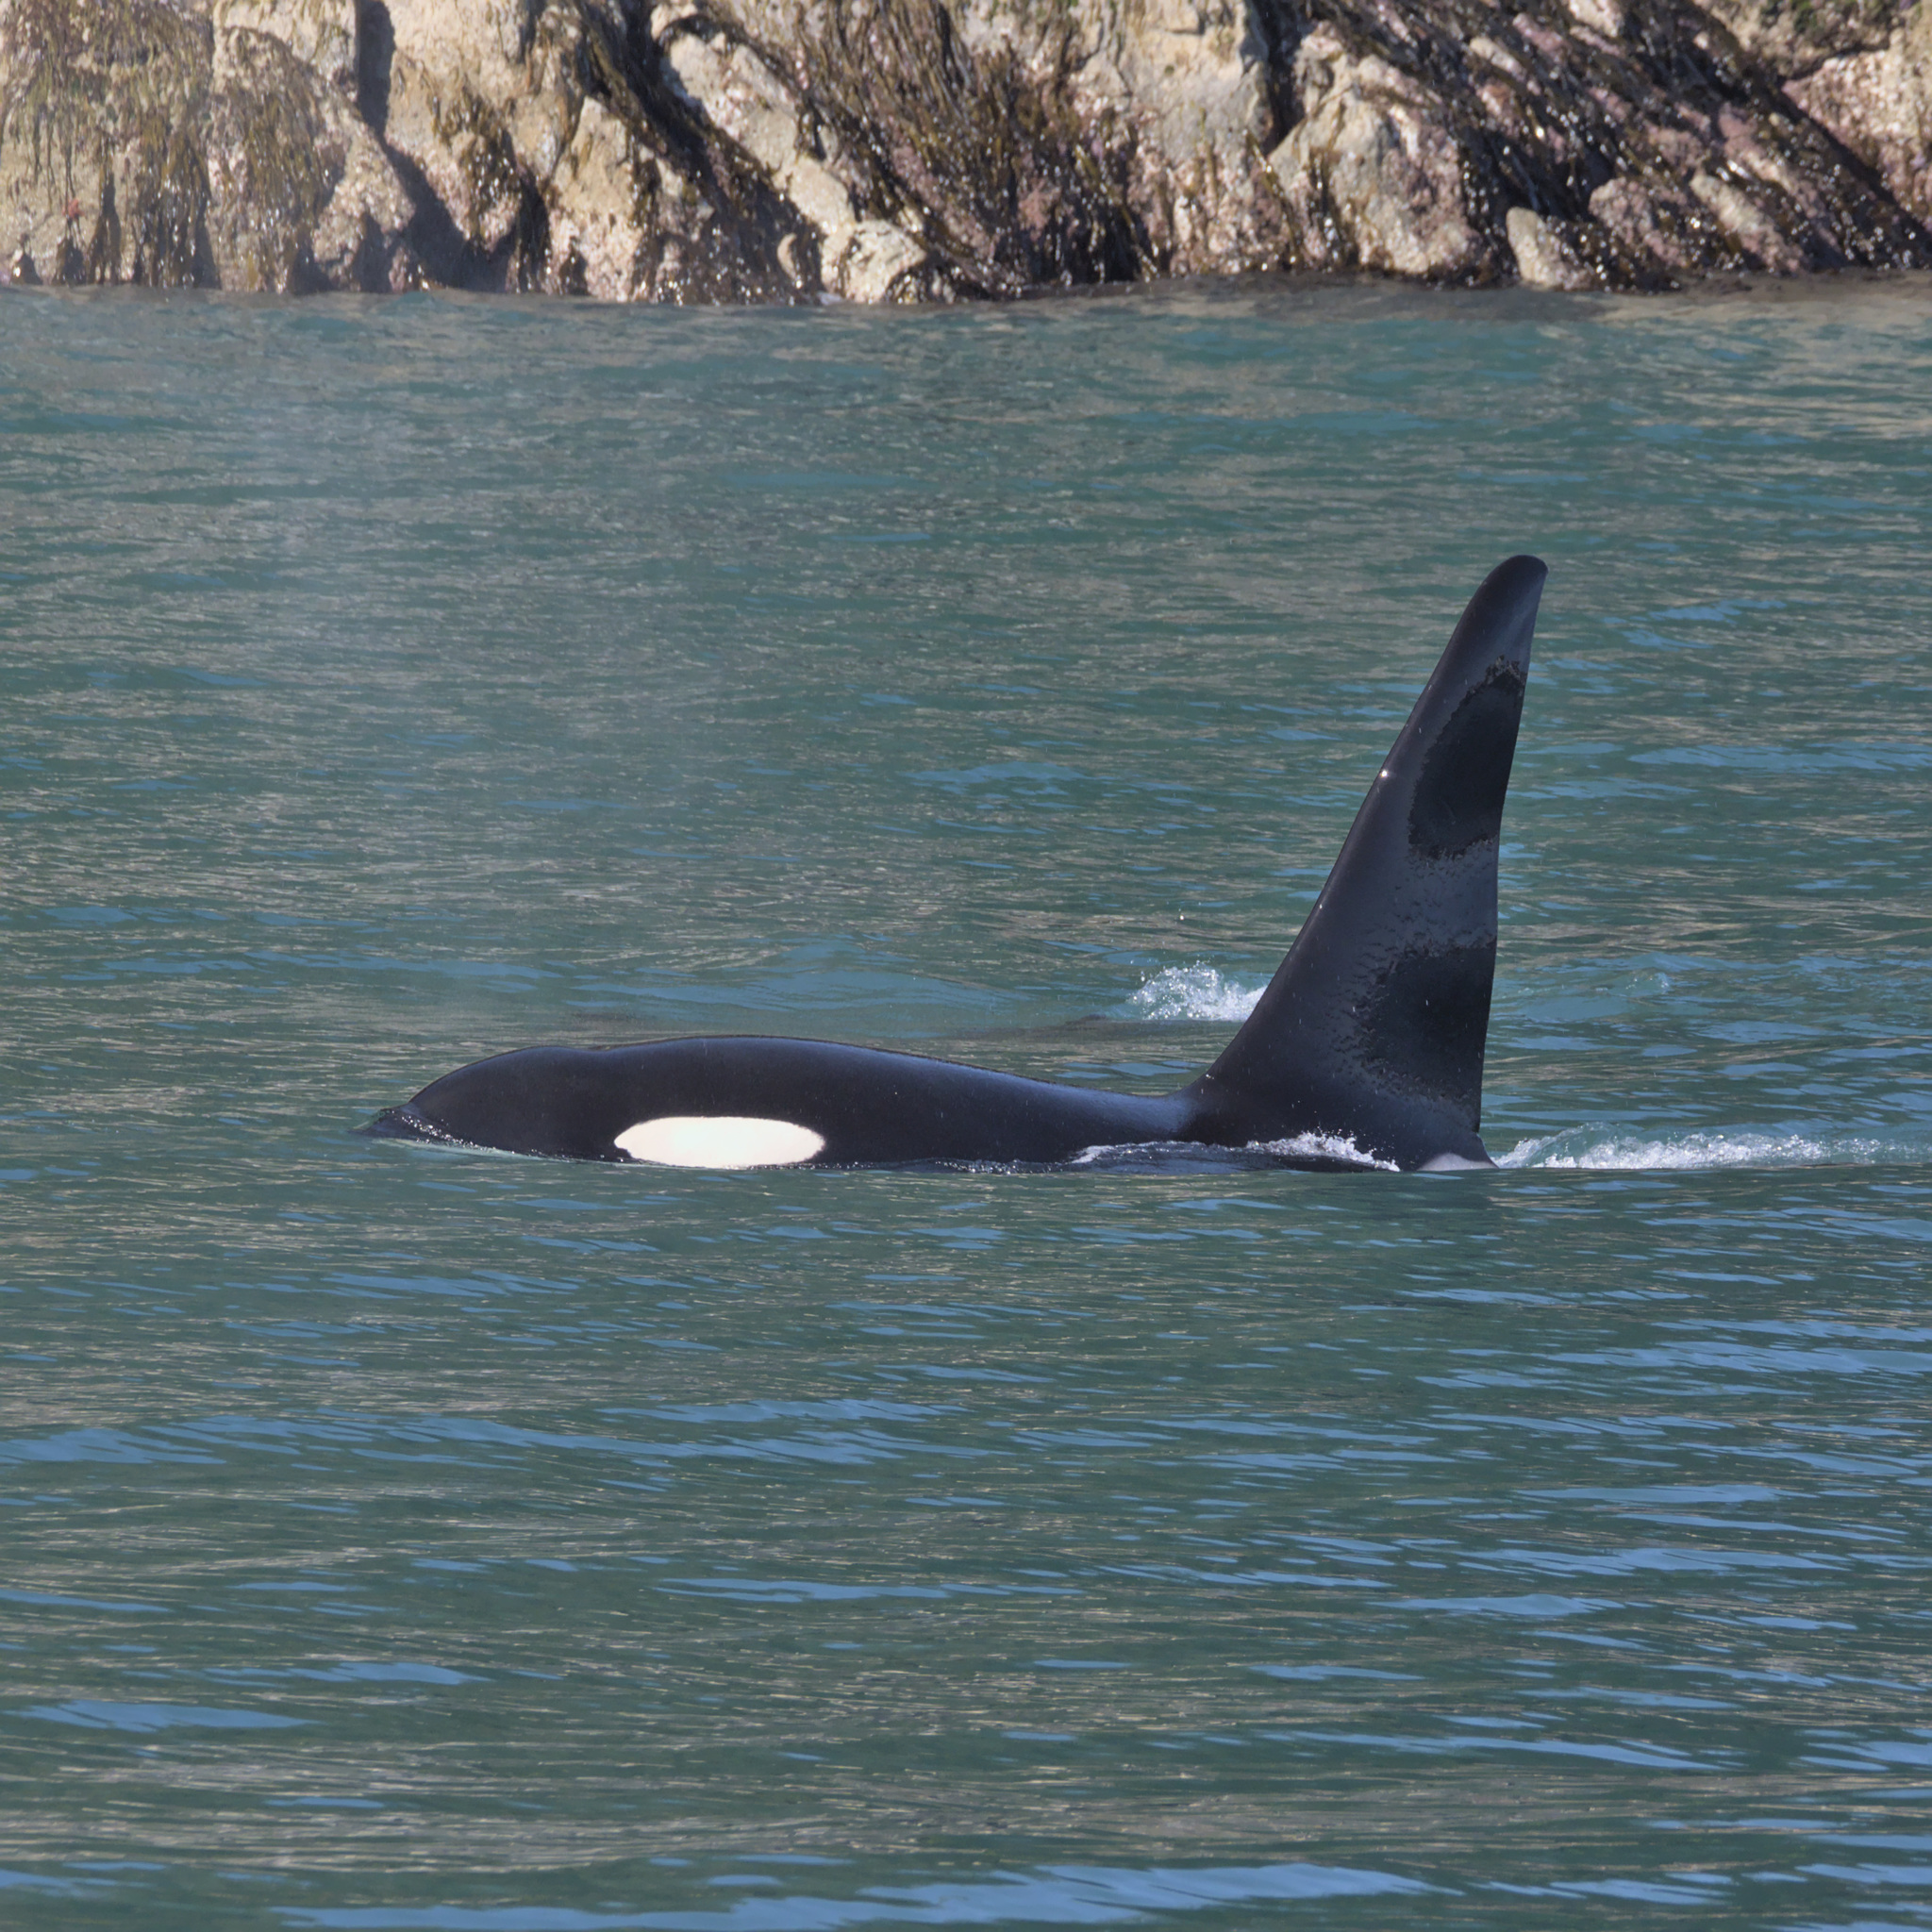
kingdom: Animalia
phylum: Chordata
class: Mammalia
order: Cetacea
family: Delphinidae
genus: Orcinus
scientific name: Orcinus orca
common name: Killer whale
